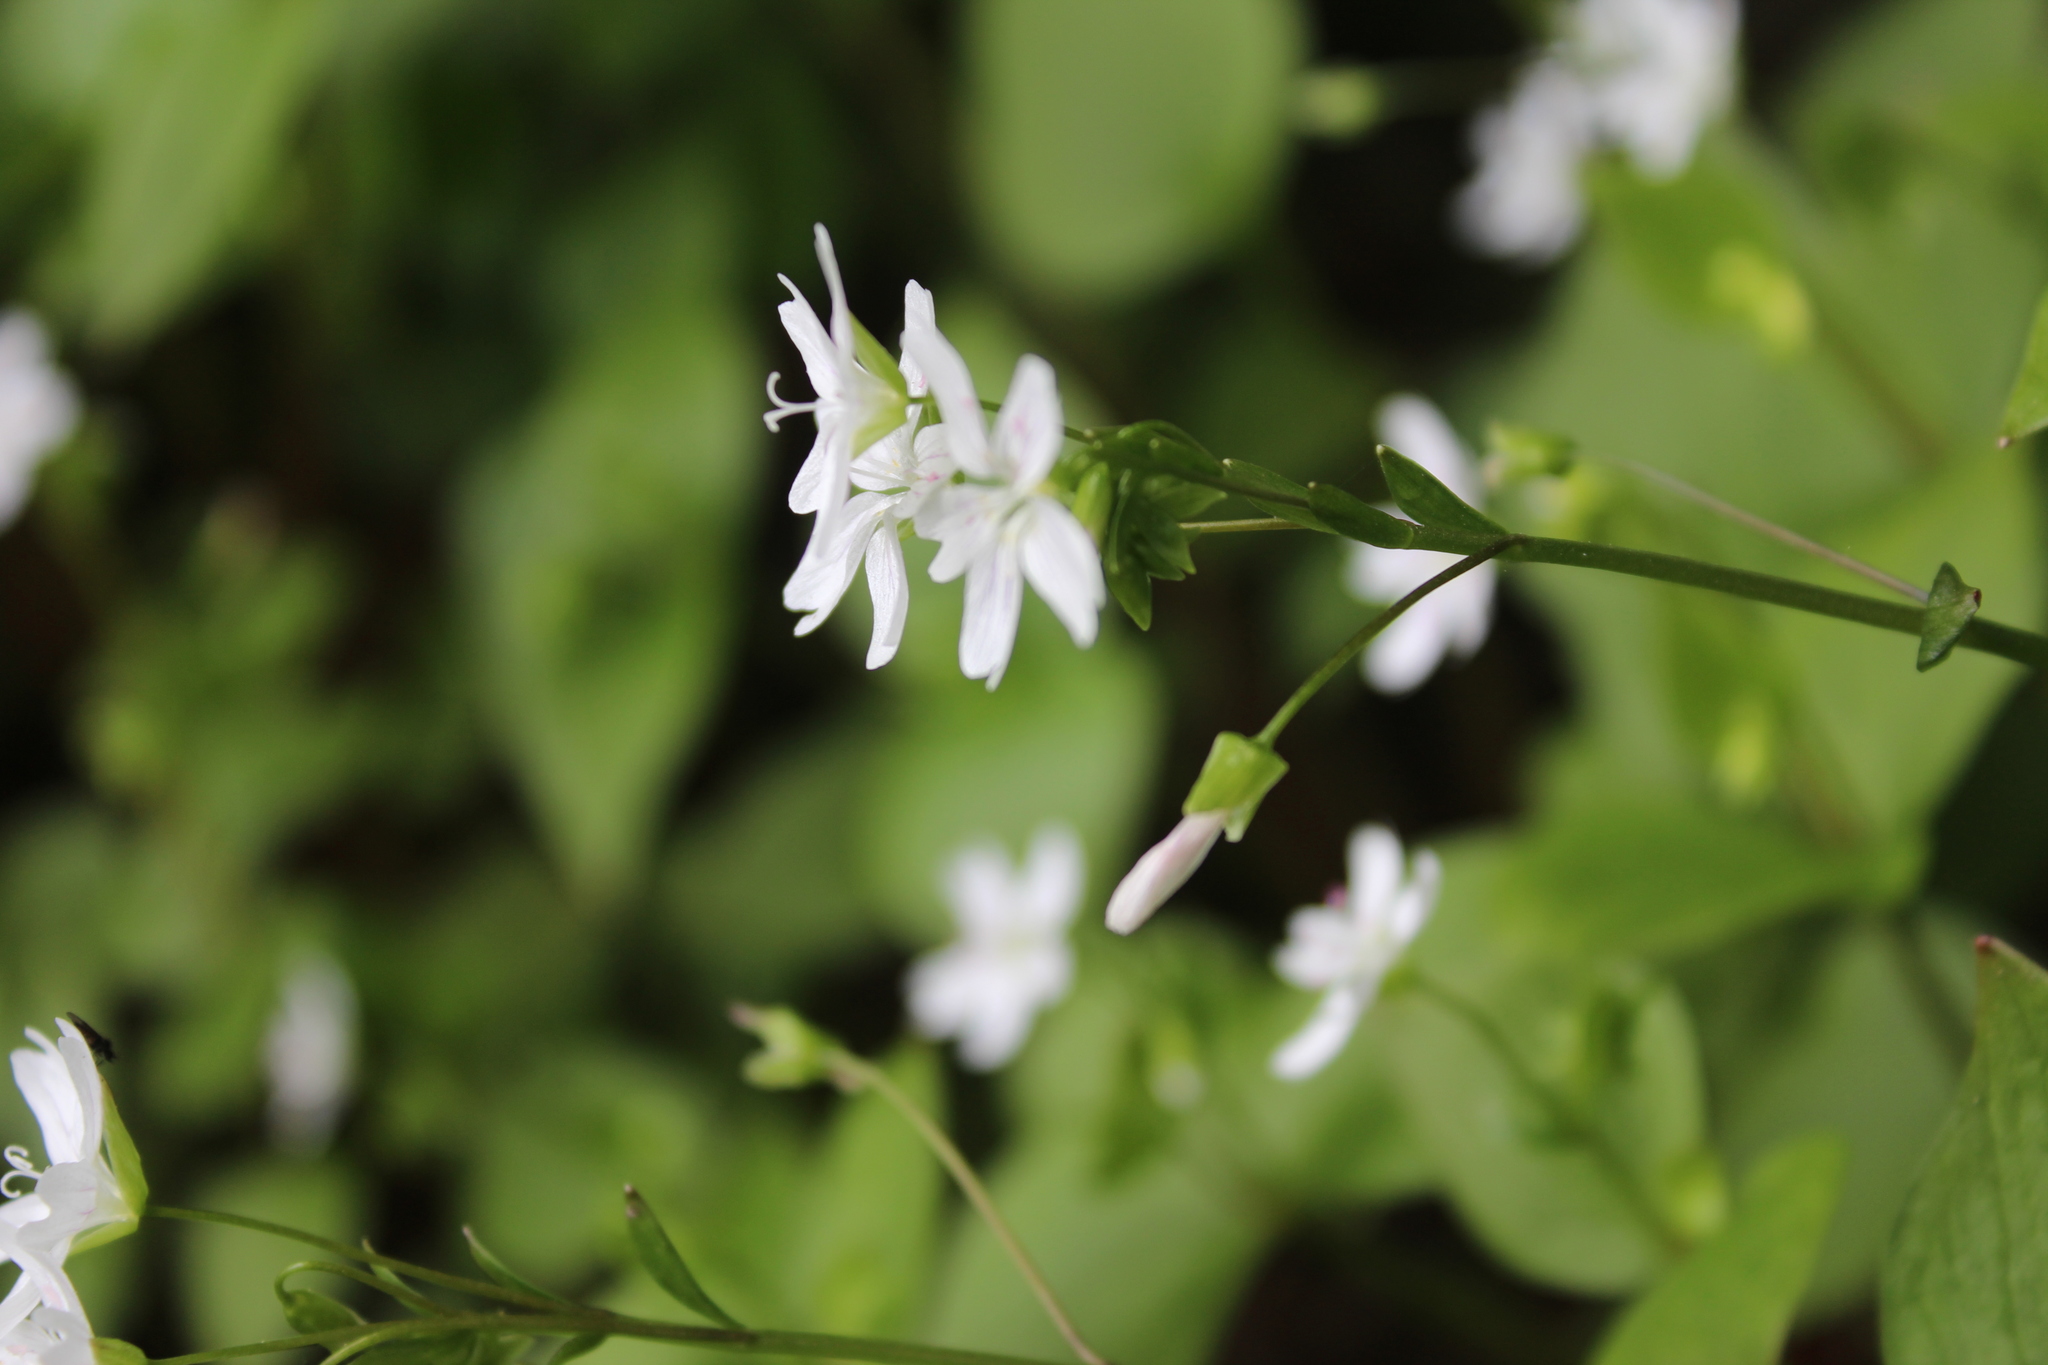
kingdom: Plantae
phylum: Tracheophyta
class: Magnoliopsida
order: Caryophyllales
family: Montiaceae
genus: Claytonia
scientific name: Claytonia sibirica
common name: Pink purslane
